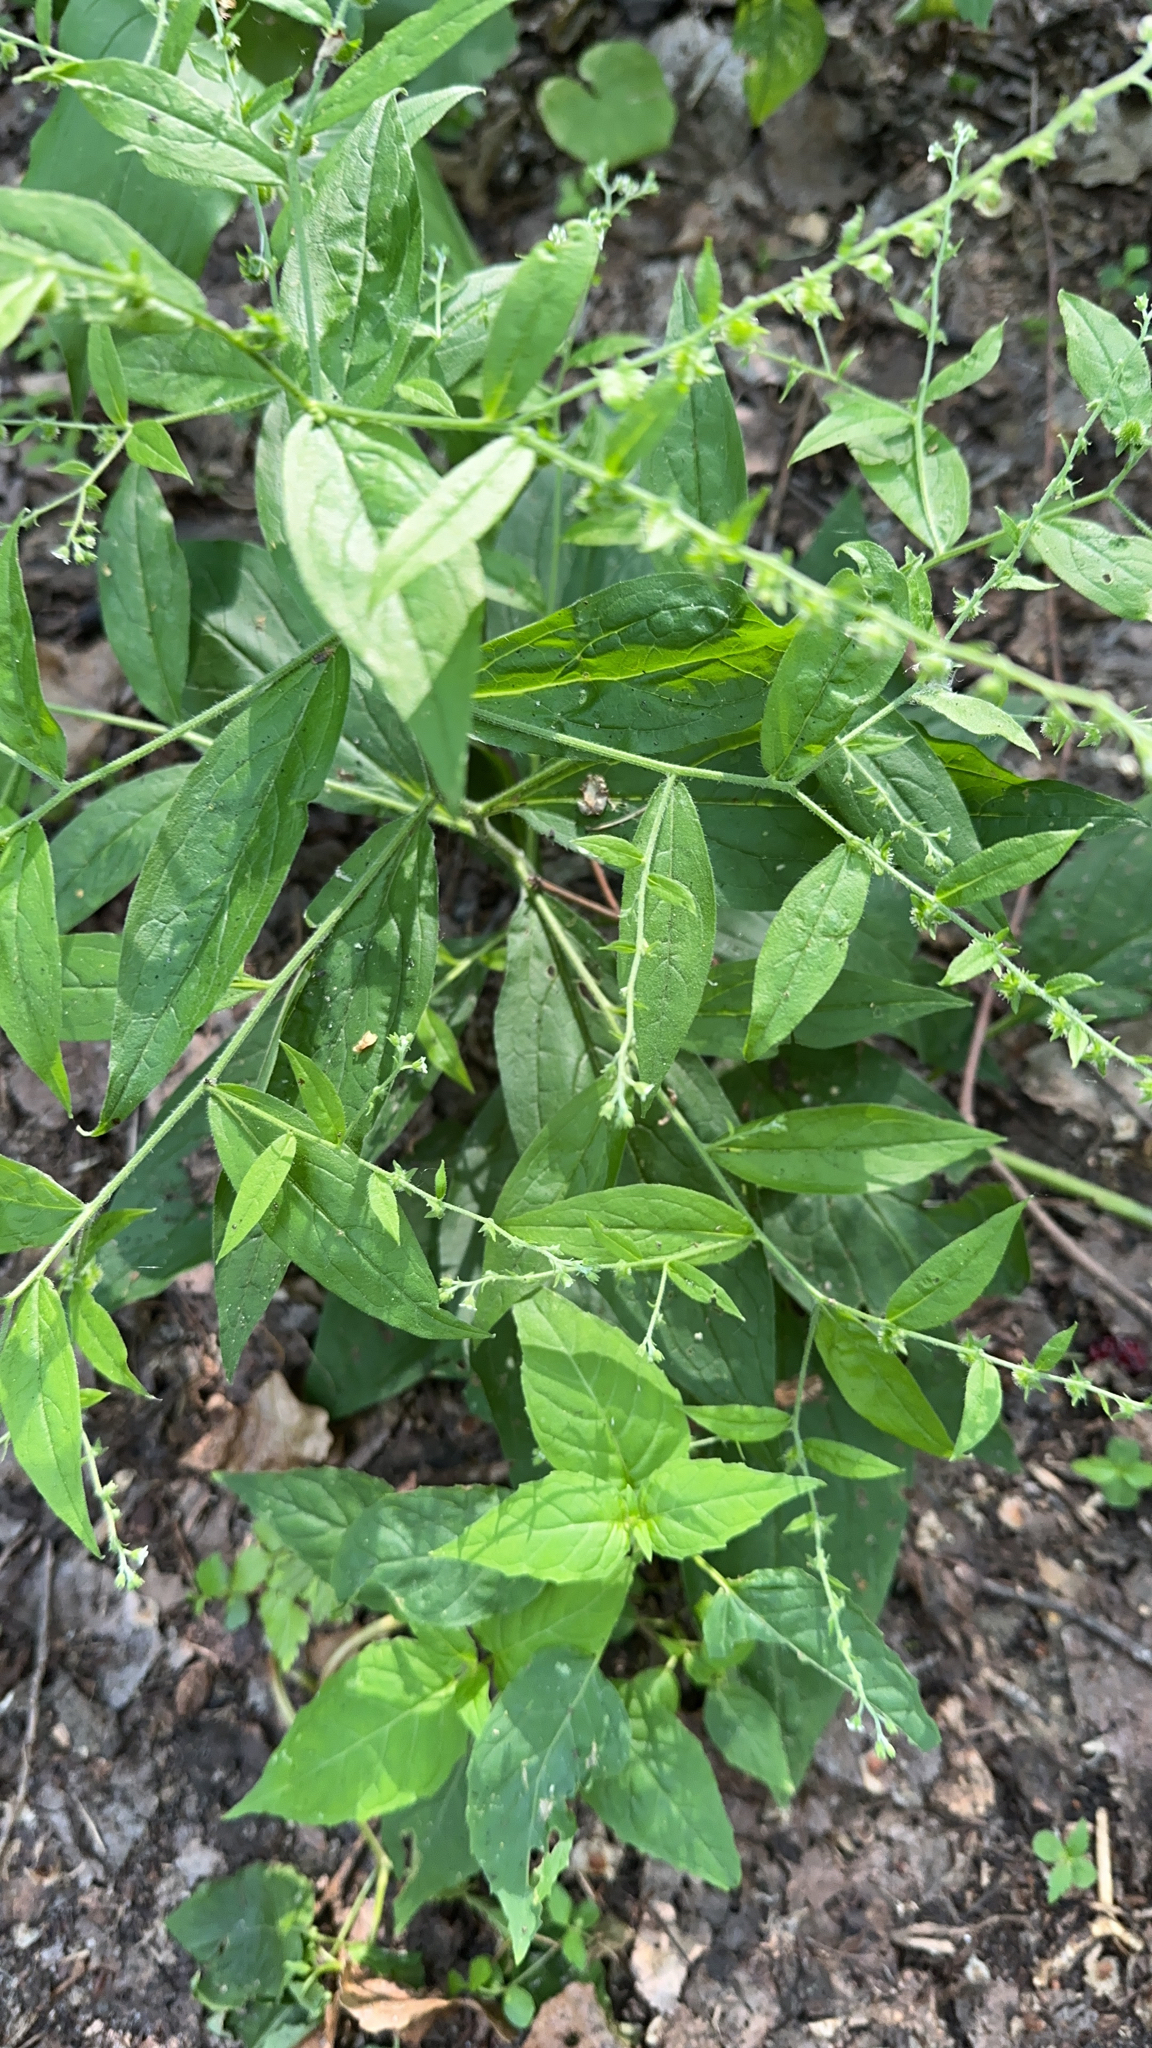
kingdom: Plantae
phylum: Tracheophyta
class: Magnoliopsida
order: Boraginales
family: Boraginaceae
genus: Hackelia
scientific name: Hackelia virginiana
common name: Beggar's-lice
